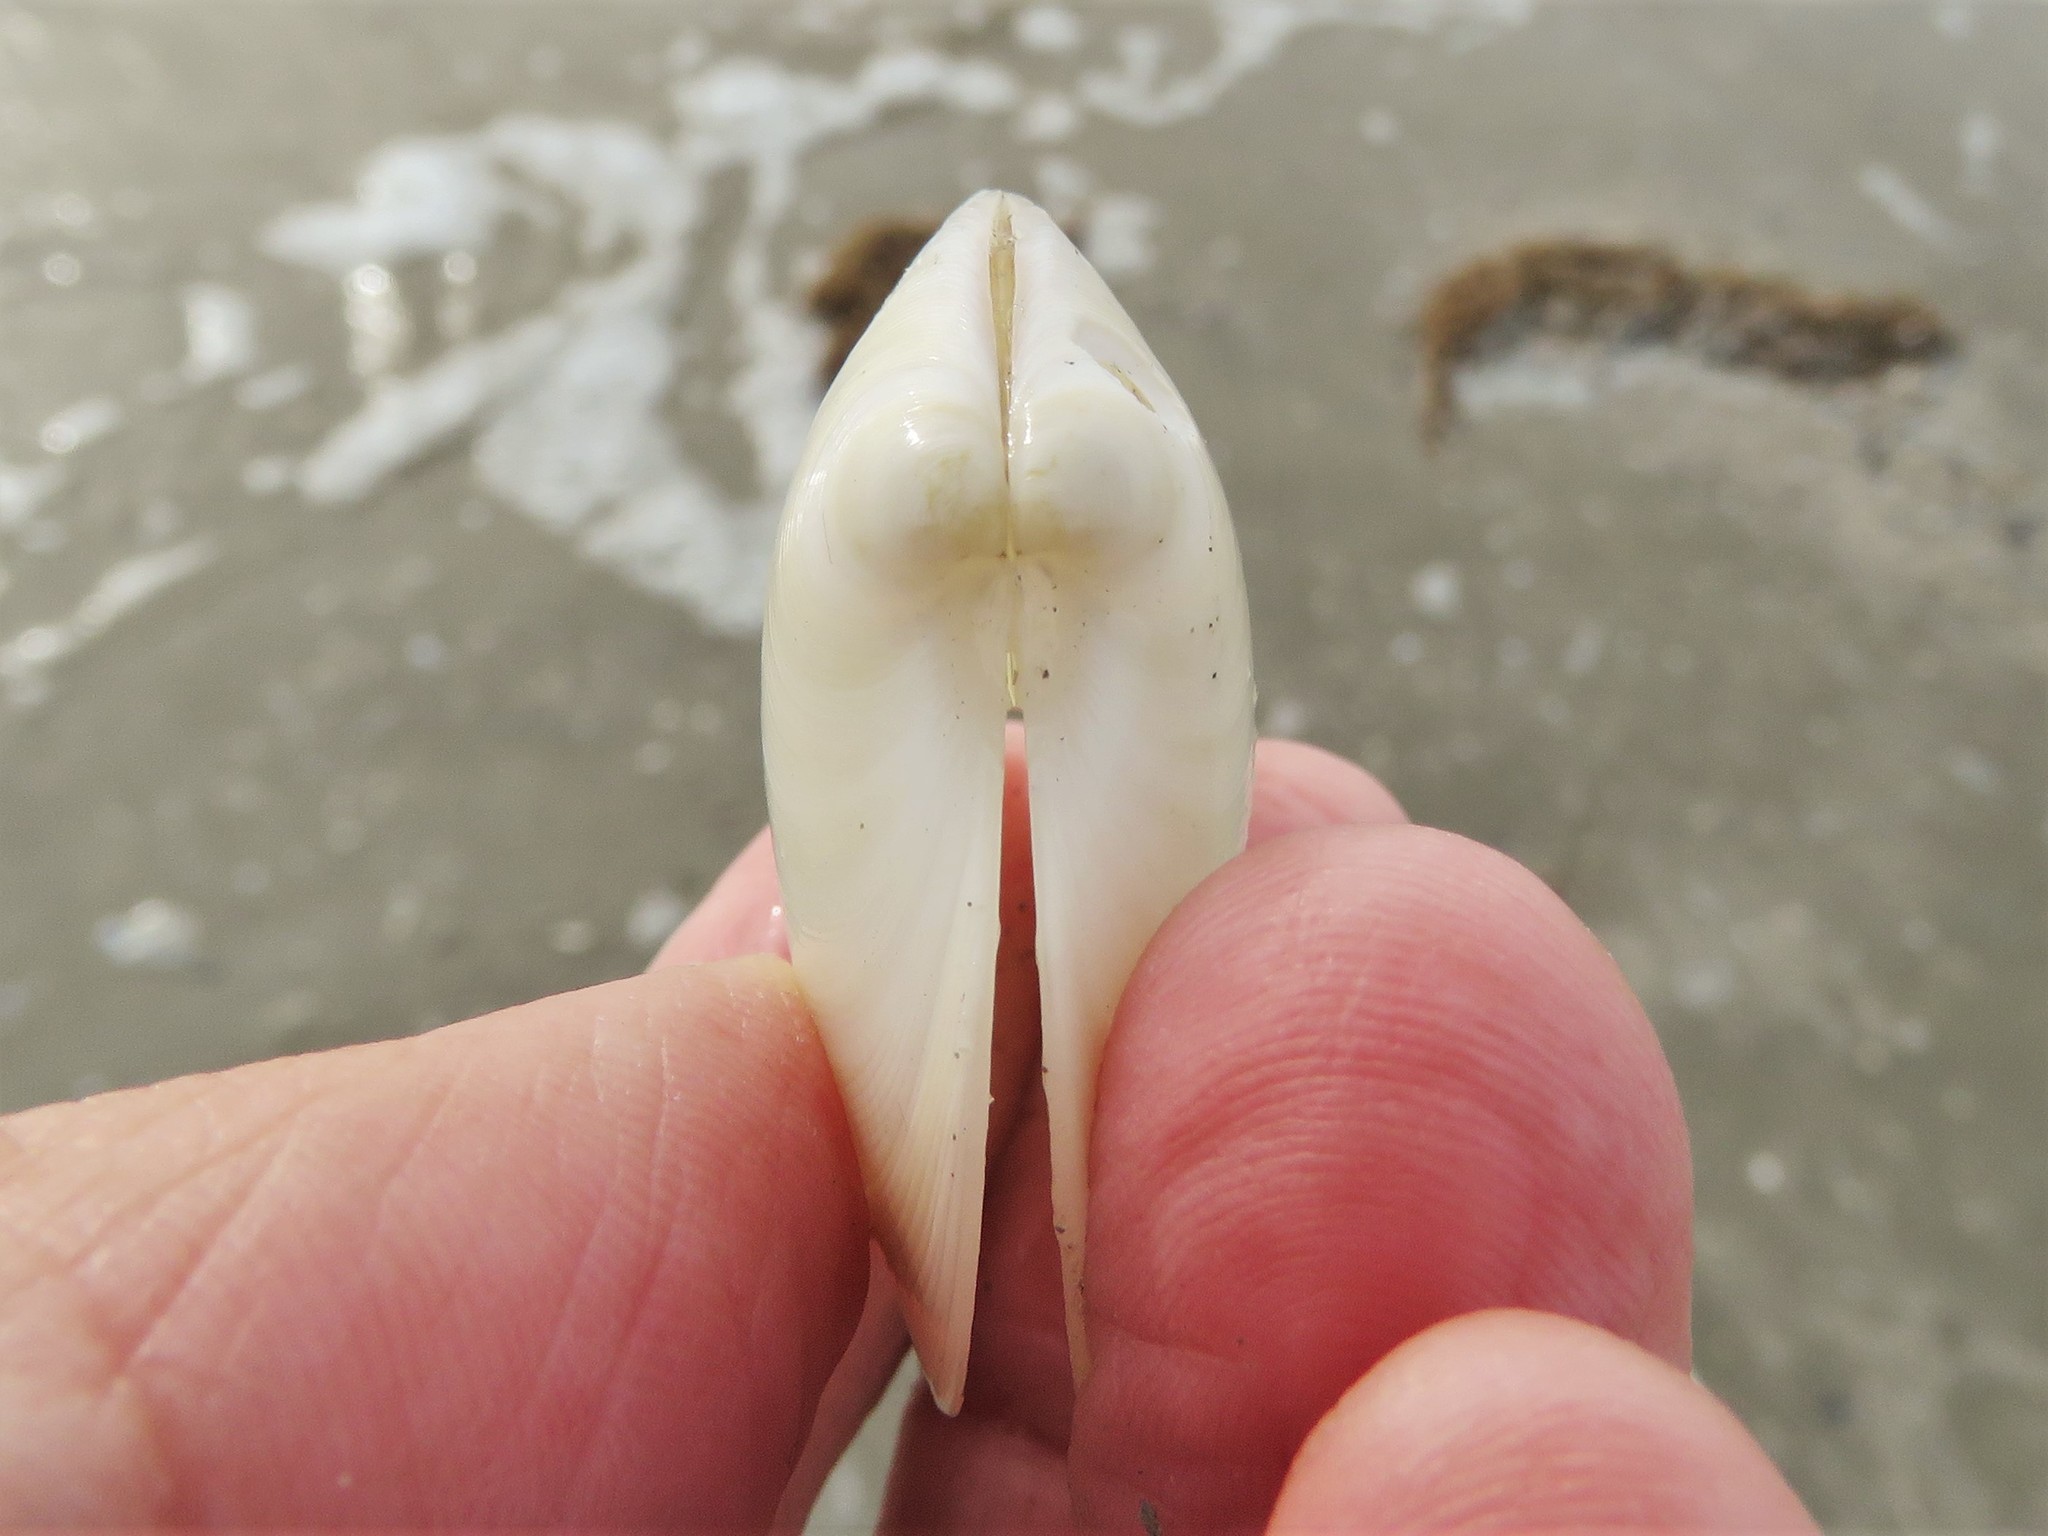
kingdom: Animalia
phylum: Mollusca
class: Bivalvia
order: Venerida
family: Veneridae
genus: Dosinia
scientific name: Dosinia discus
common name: Disk dosinia
